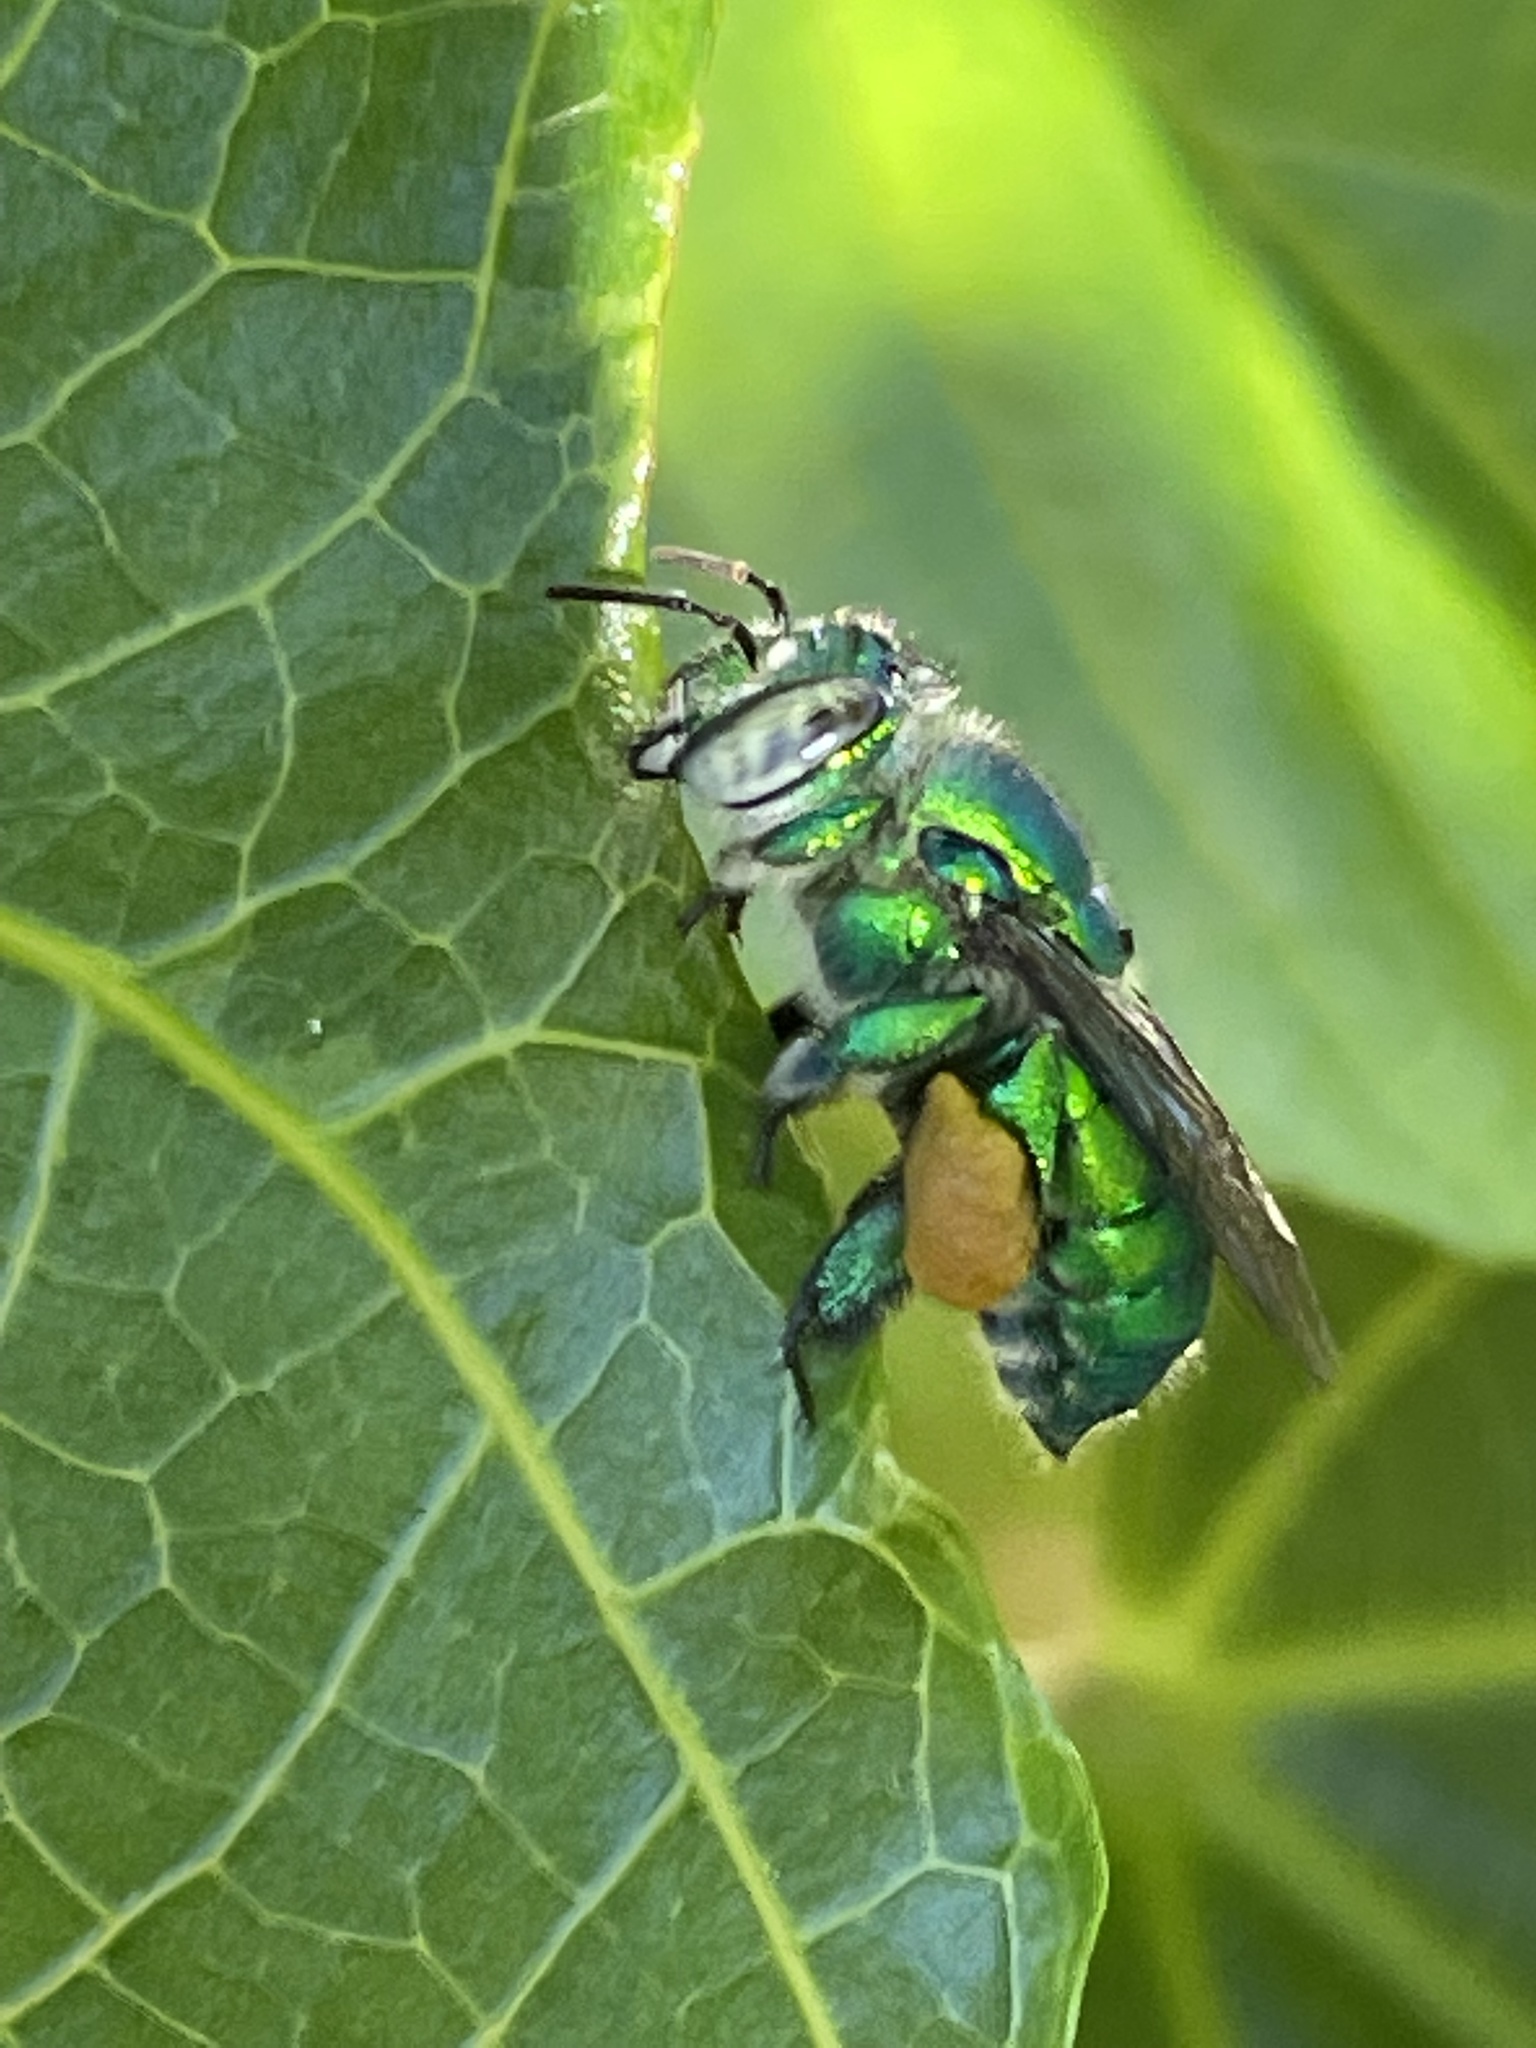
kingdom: Animalia
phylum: Arthropoda
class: Insecta
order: Hymenoptera
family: Apidae
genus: Euglossa
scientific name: Euglossa dilemma
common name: Green orchid bee
